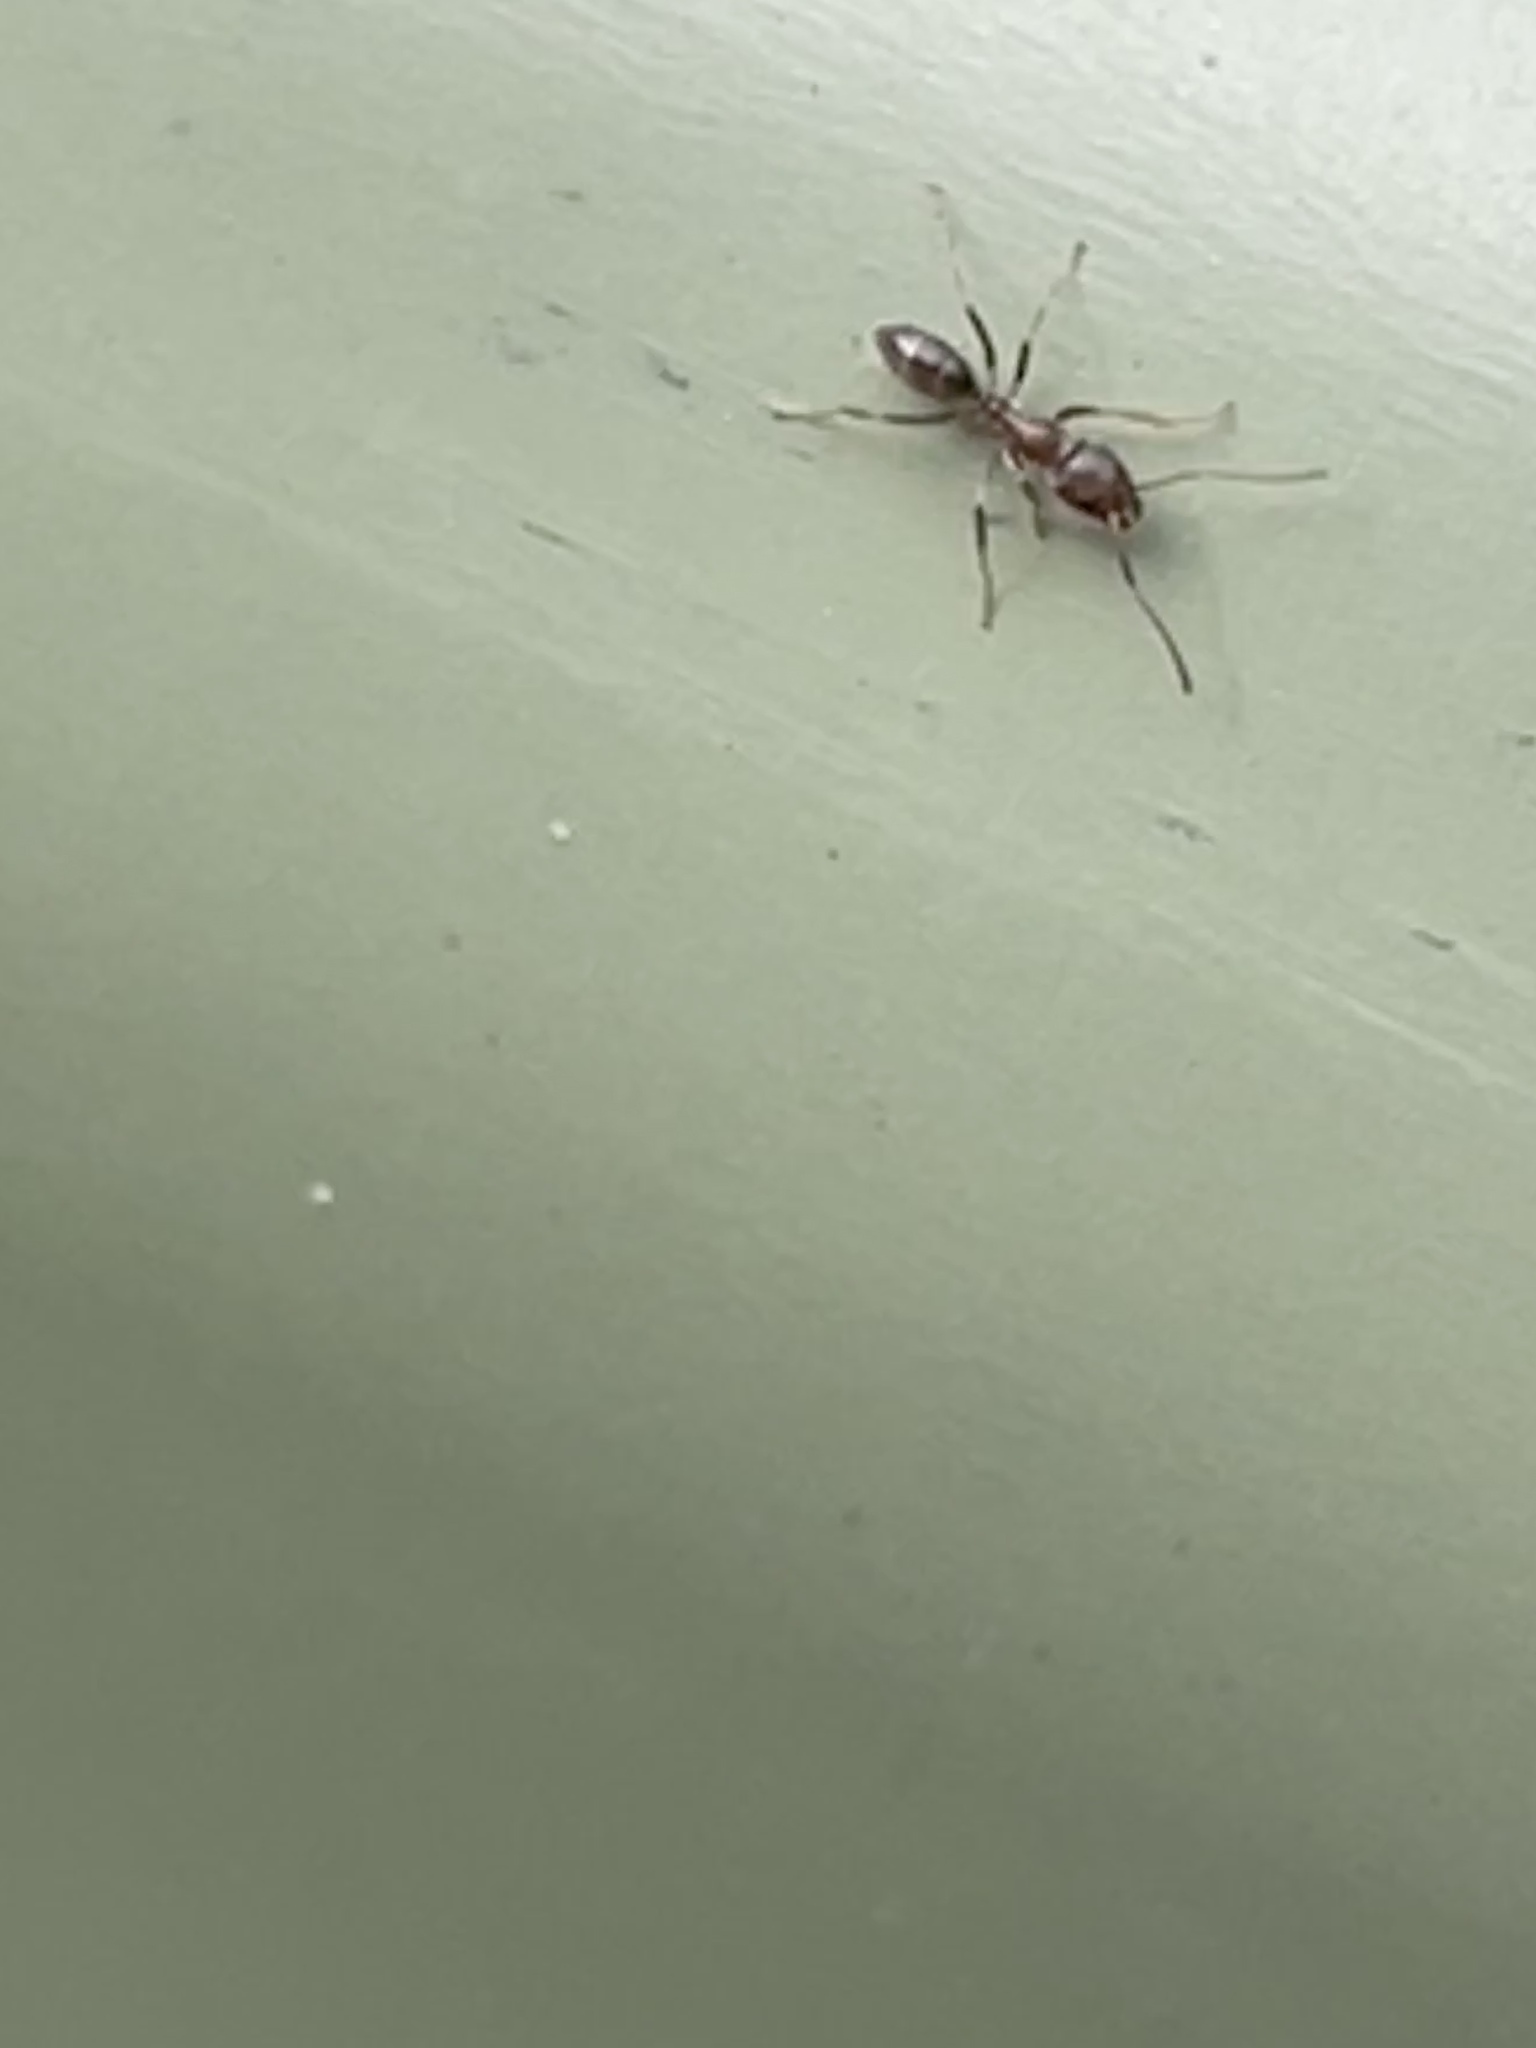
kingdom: Animalia
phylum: Arthropoda
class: Insecta
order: Hymenoptera
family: Formicidae
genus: Linepithema
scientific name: Linepithema humile
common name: Argentine ant
